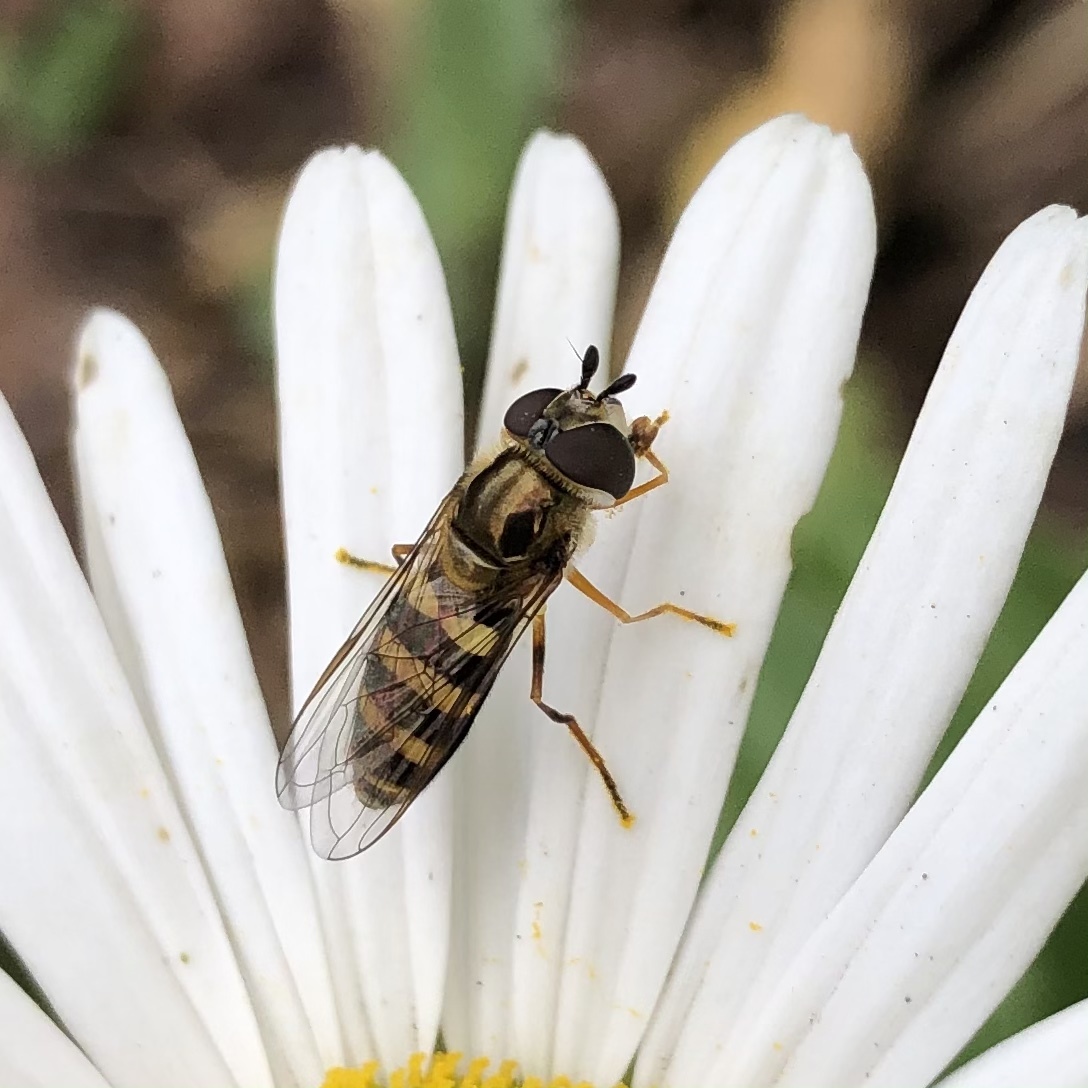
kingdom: Animalia
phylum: Arthropoda
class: Insecta
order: Diptera
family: Syrphidae
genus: Eupeodes
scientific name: Eupeodes
